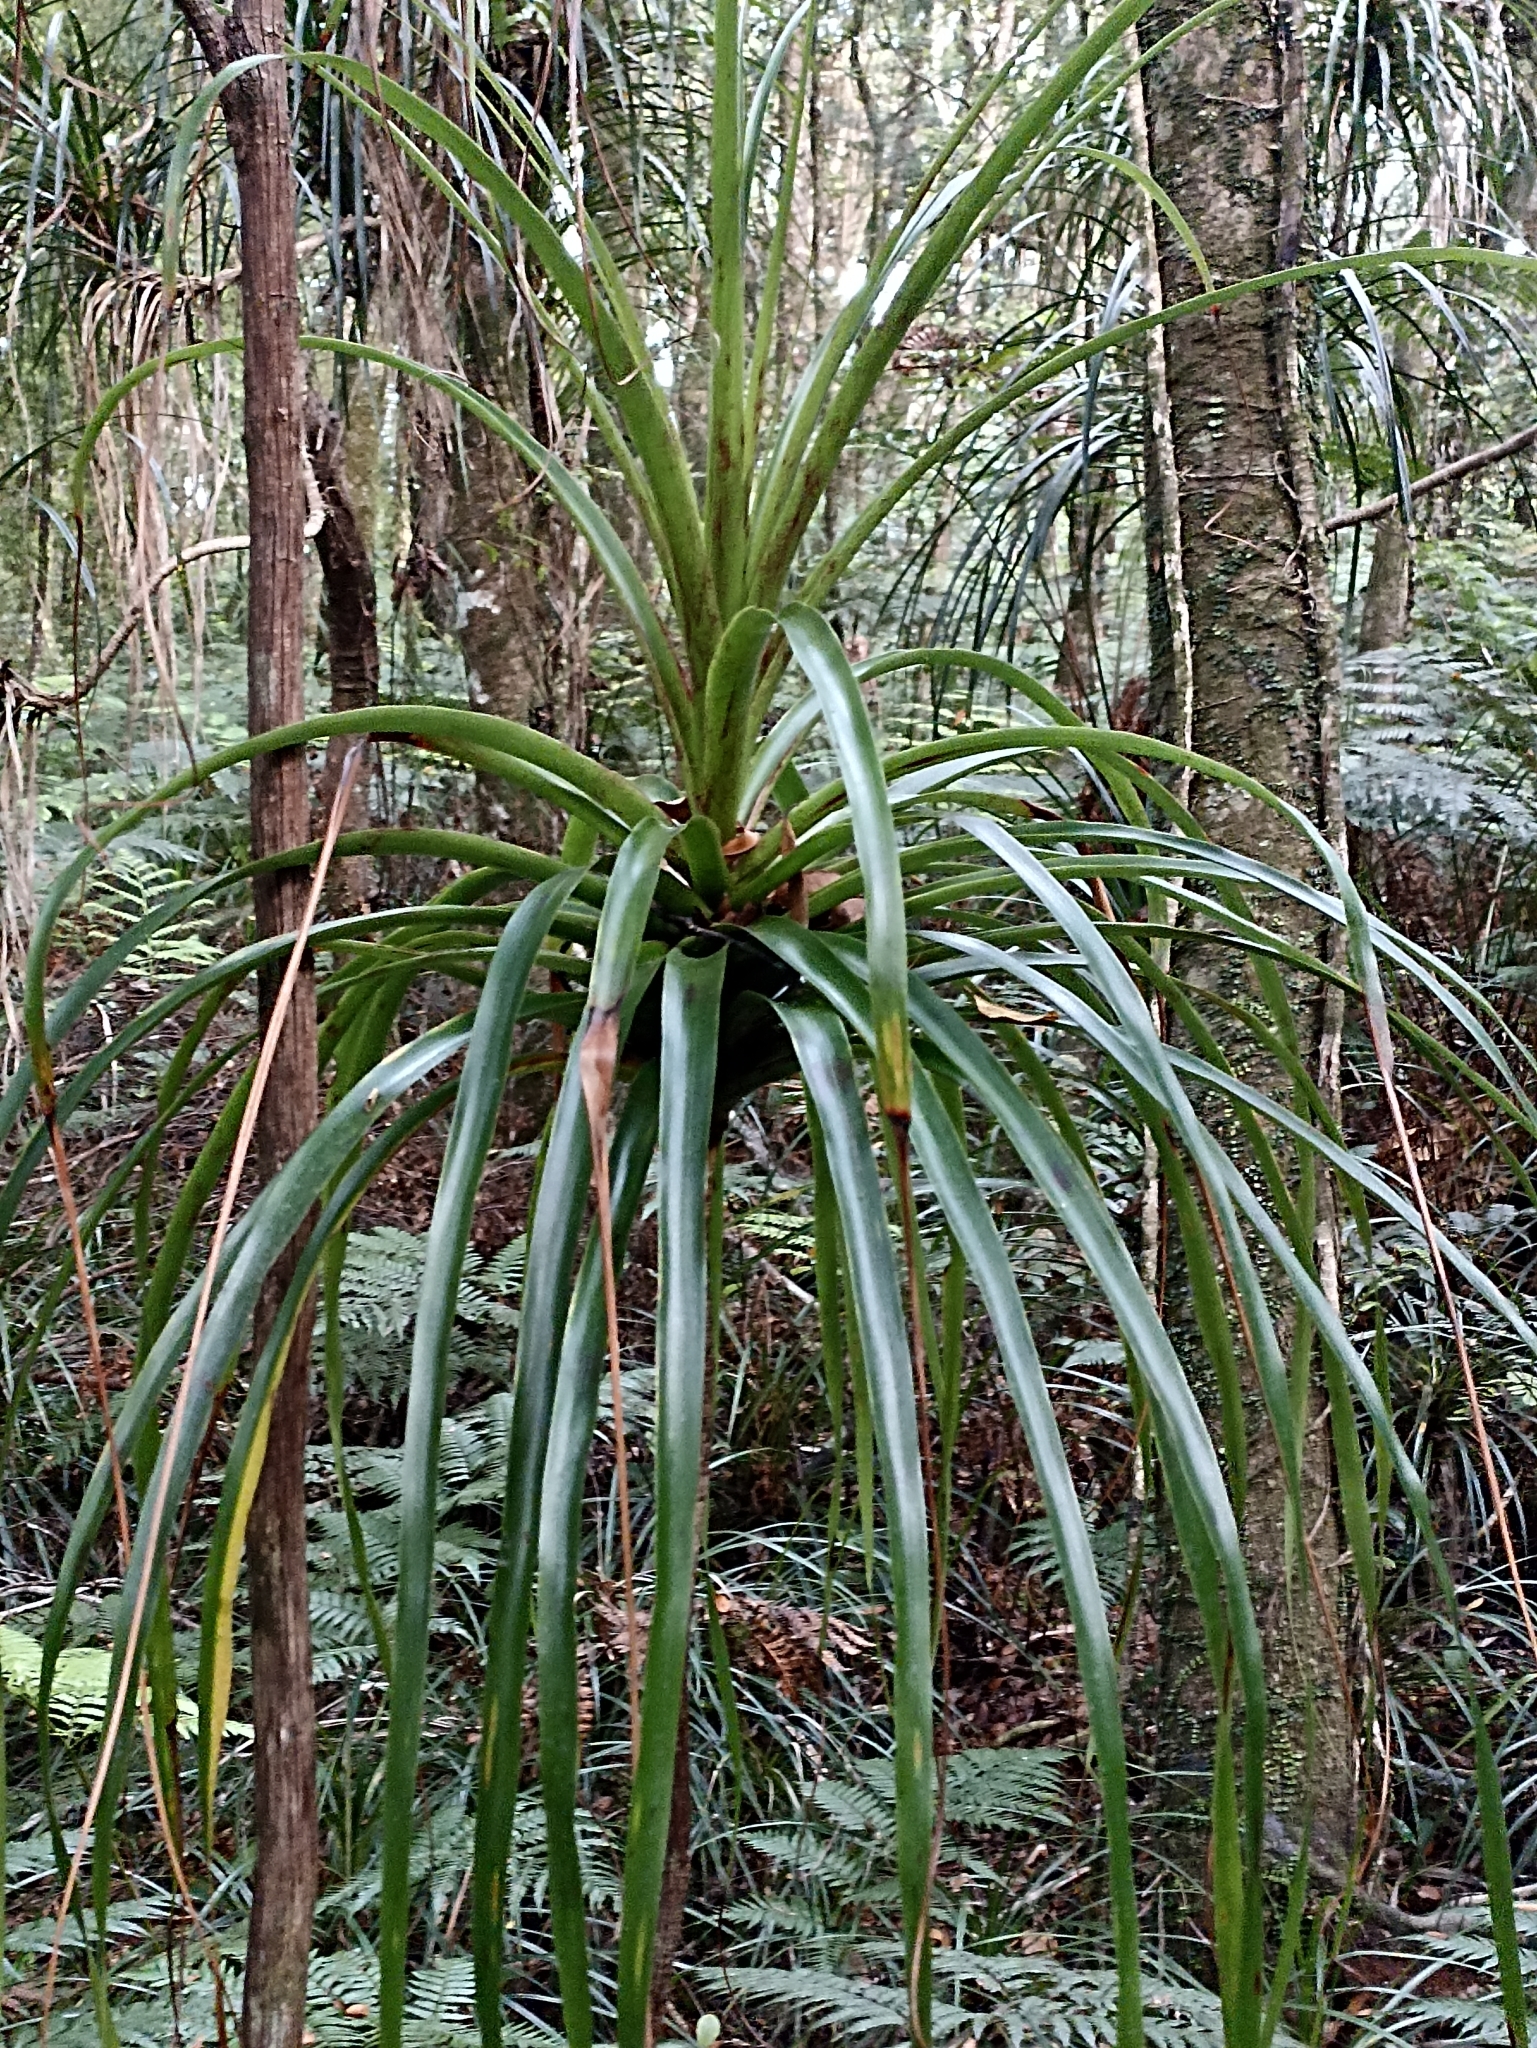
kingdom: Plantae
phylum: Tracheophyta
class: Magnoliopsida
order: Ericales
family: Ericaceae
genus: Dracophyllum
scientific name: Dracophyllum latifolium
